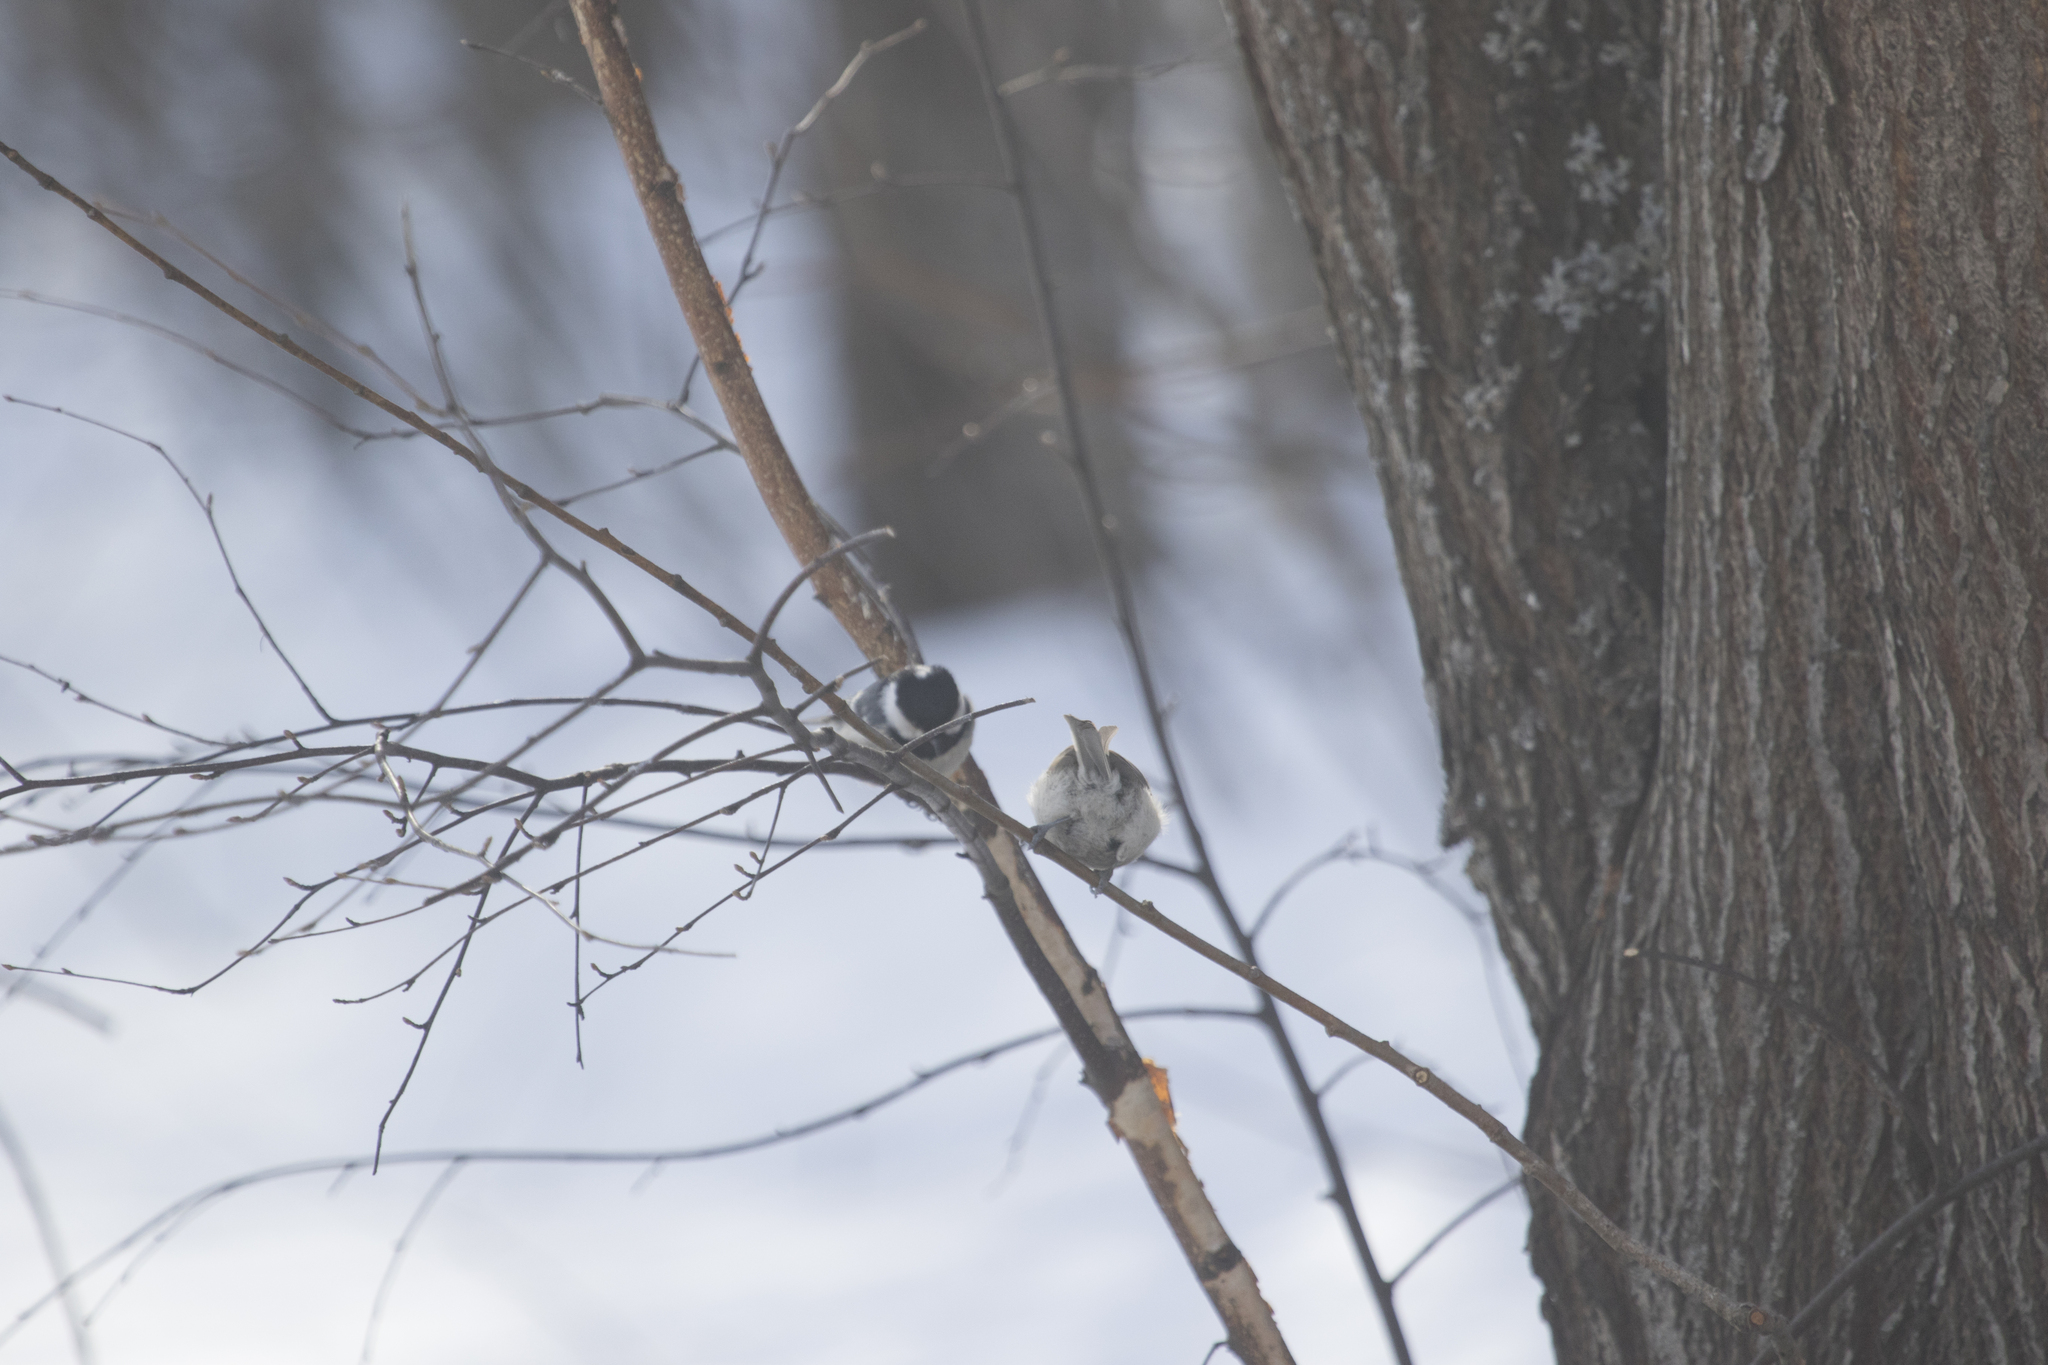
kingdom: Animalia
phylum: Chordata
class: Aves
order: Passeriformes
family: Paridae
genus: Periparus
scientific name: Periparus ater
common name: Coal tit
